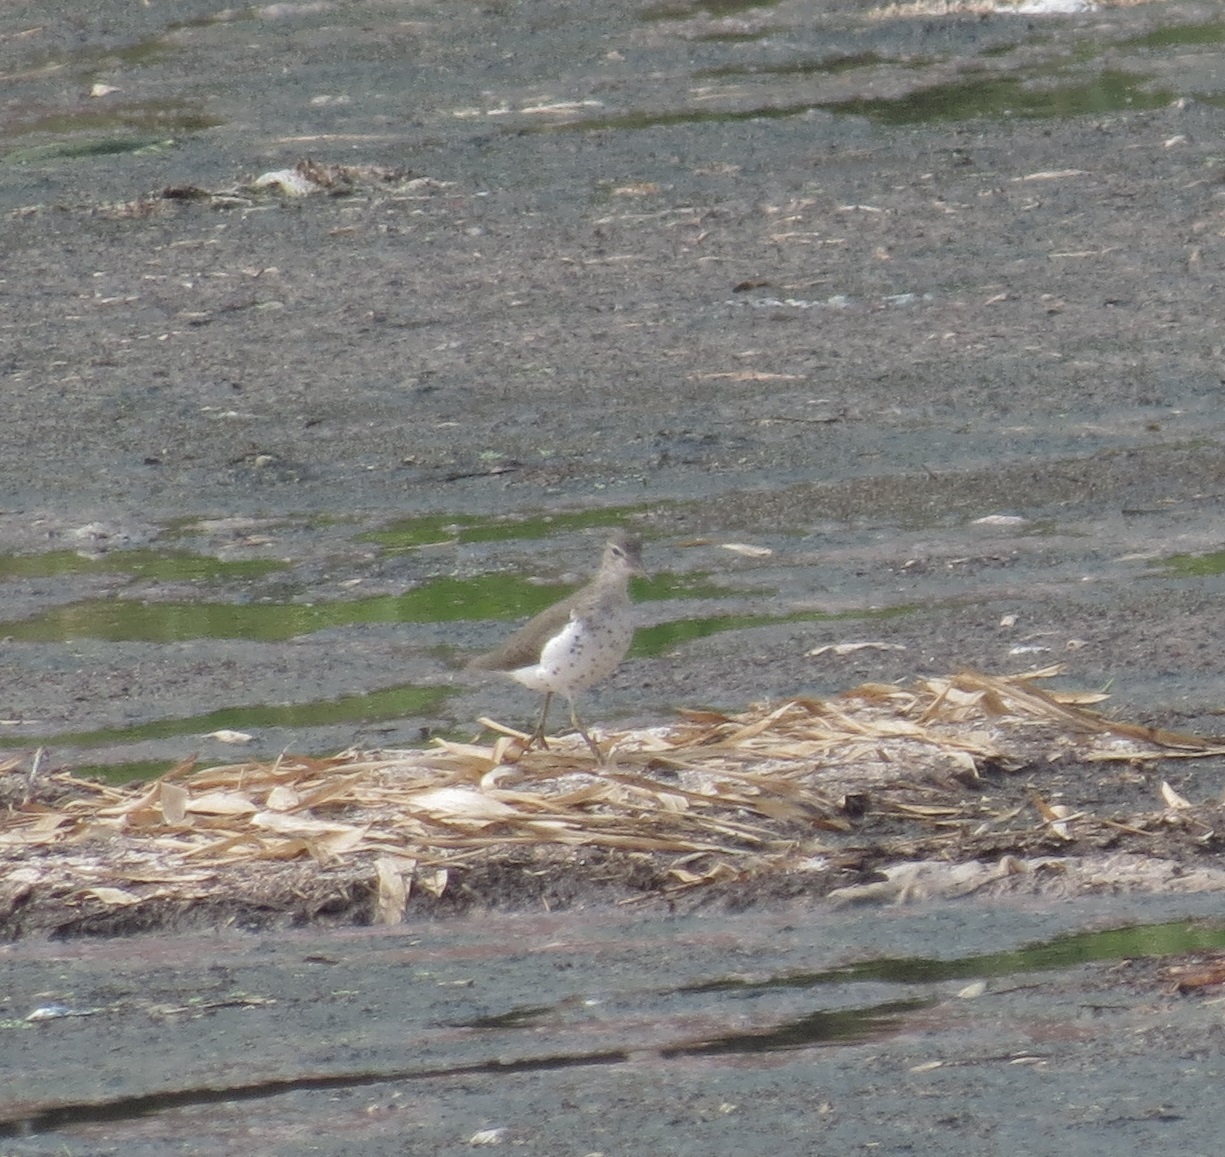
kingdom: Animalia
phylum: Chordata
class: Aves
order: Charadriiformes
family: Scolopacidae
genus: Actitis
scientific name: Actitis macularius
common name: Spotted sandpiper
